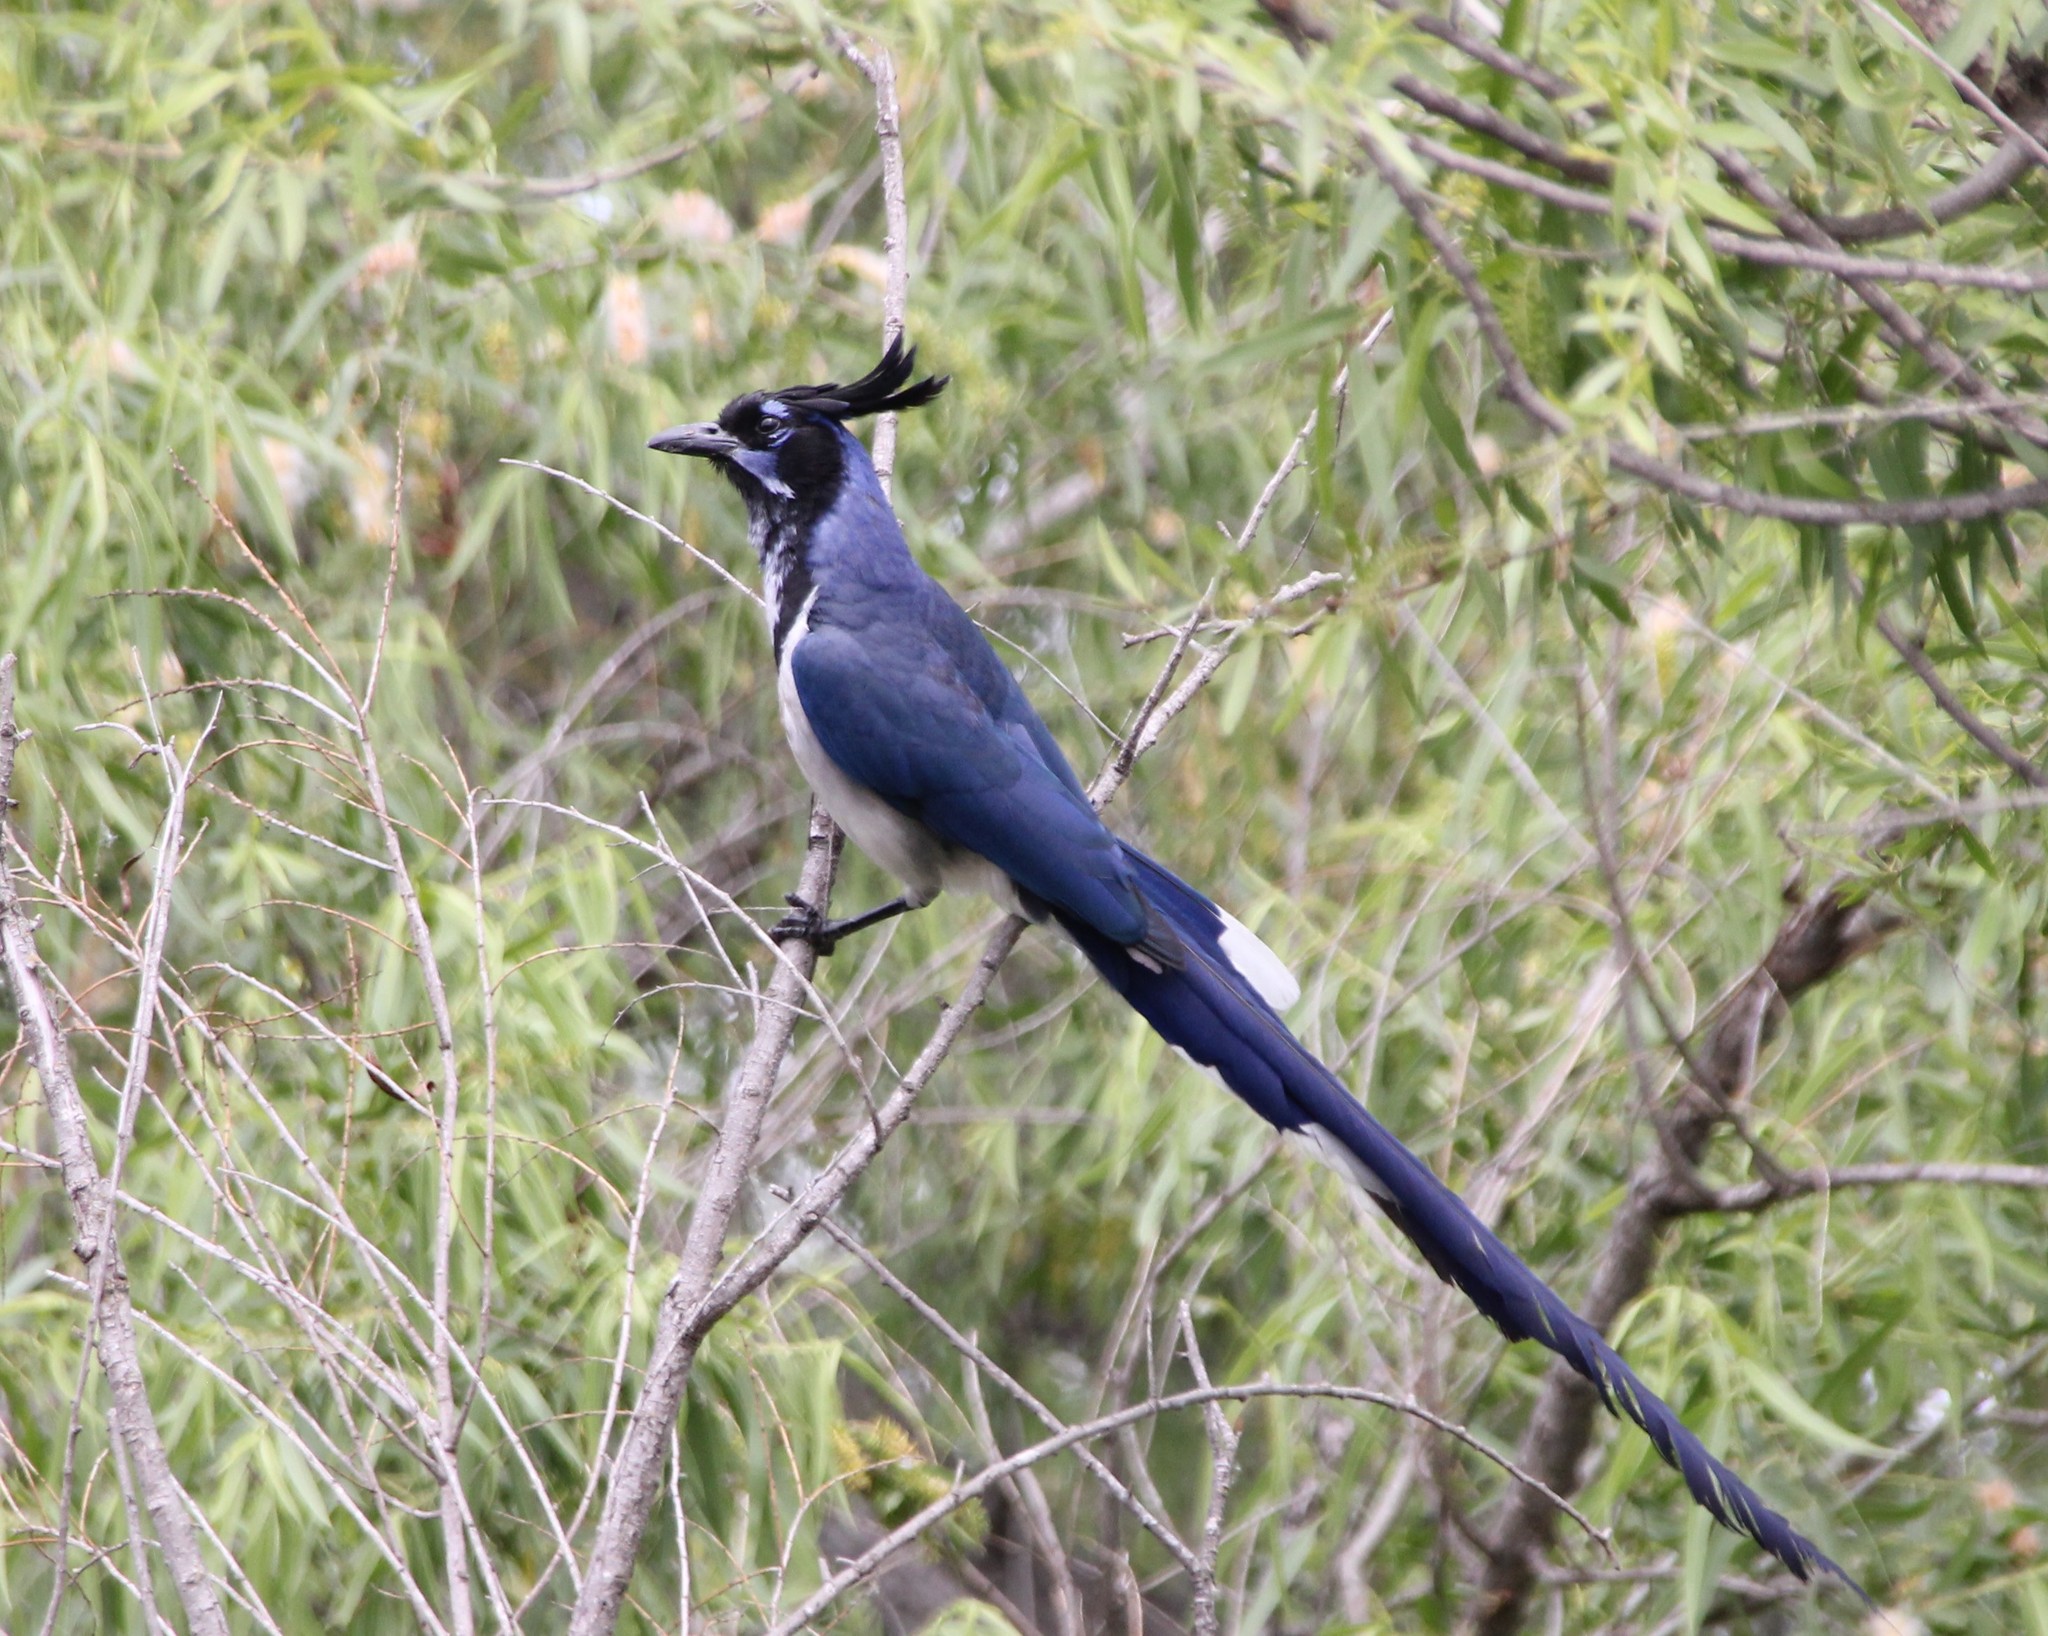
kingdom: Animalia
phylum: Chordata
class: Aves
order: Passeriformes
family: Corvidae
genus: Calocitta
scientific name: Calocitta colliei
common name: Black-throated magpie-jay
